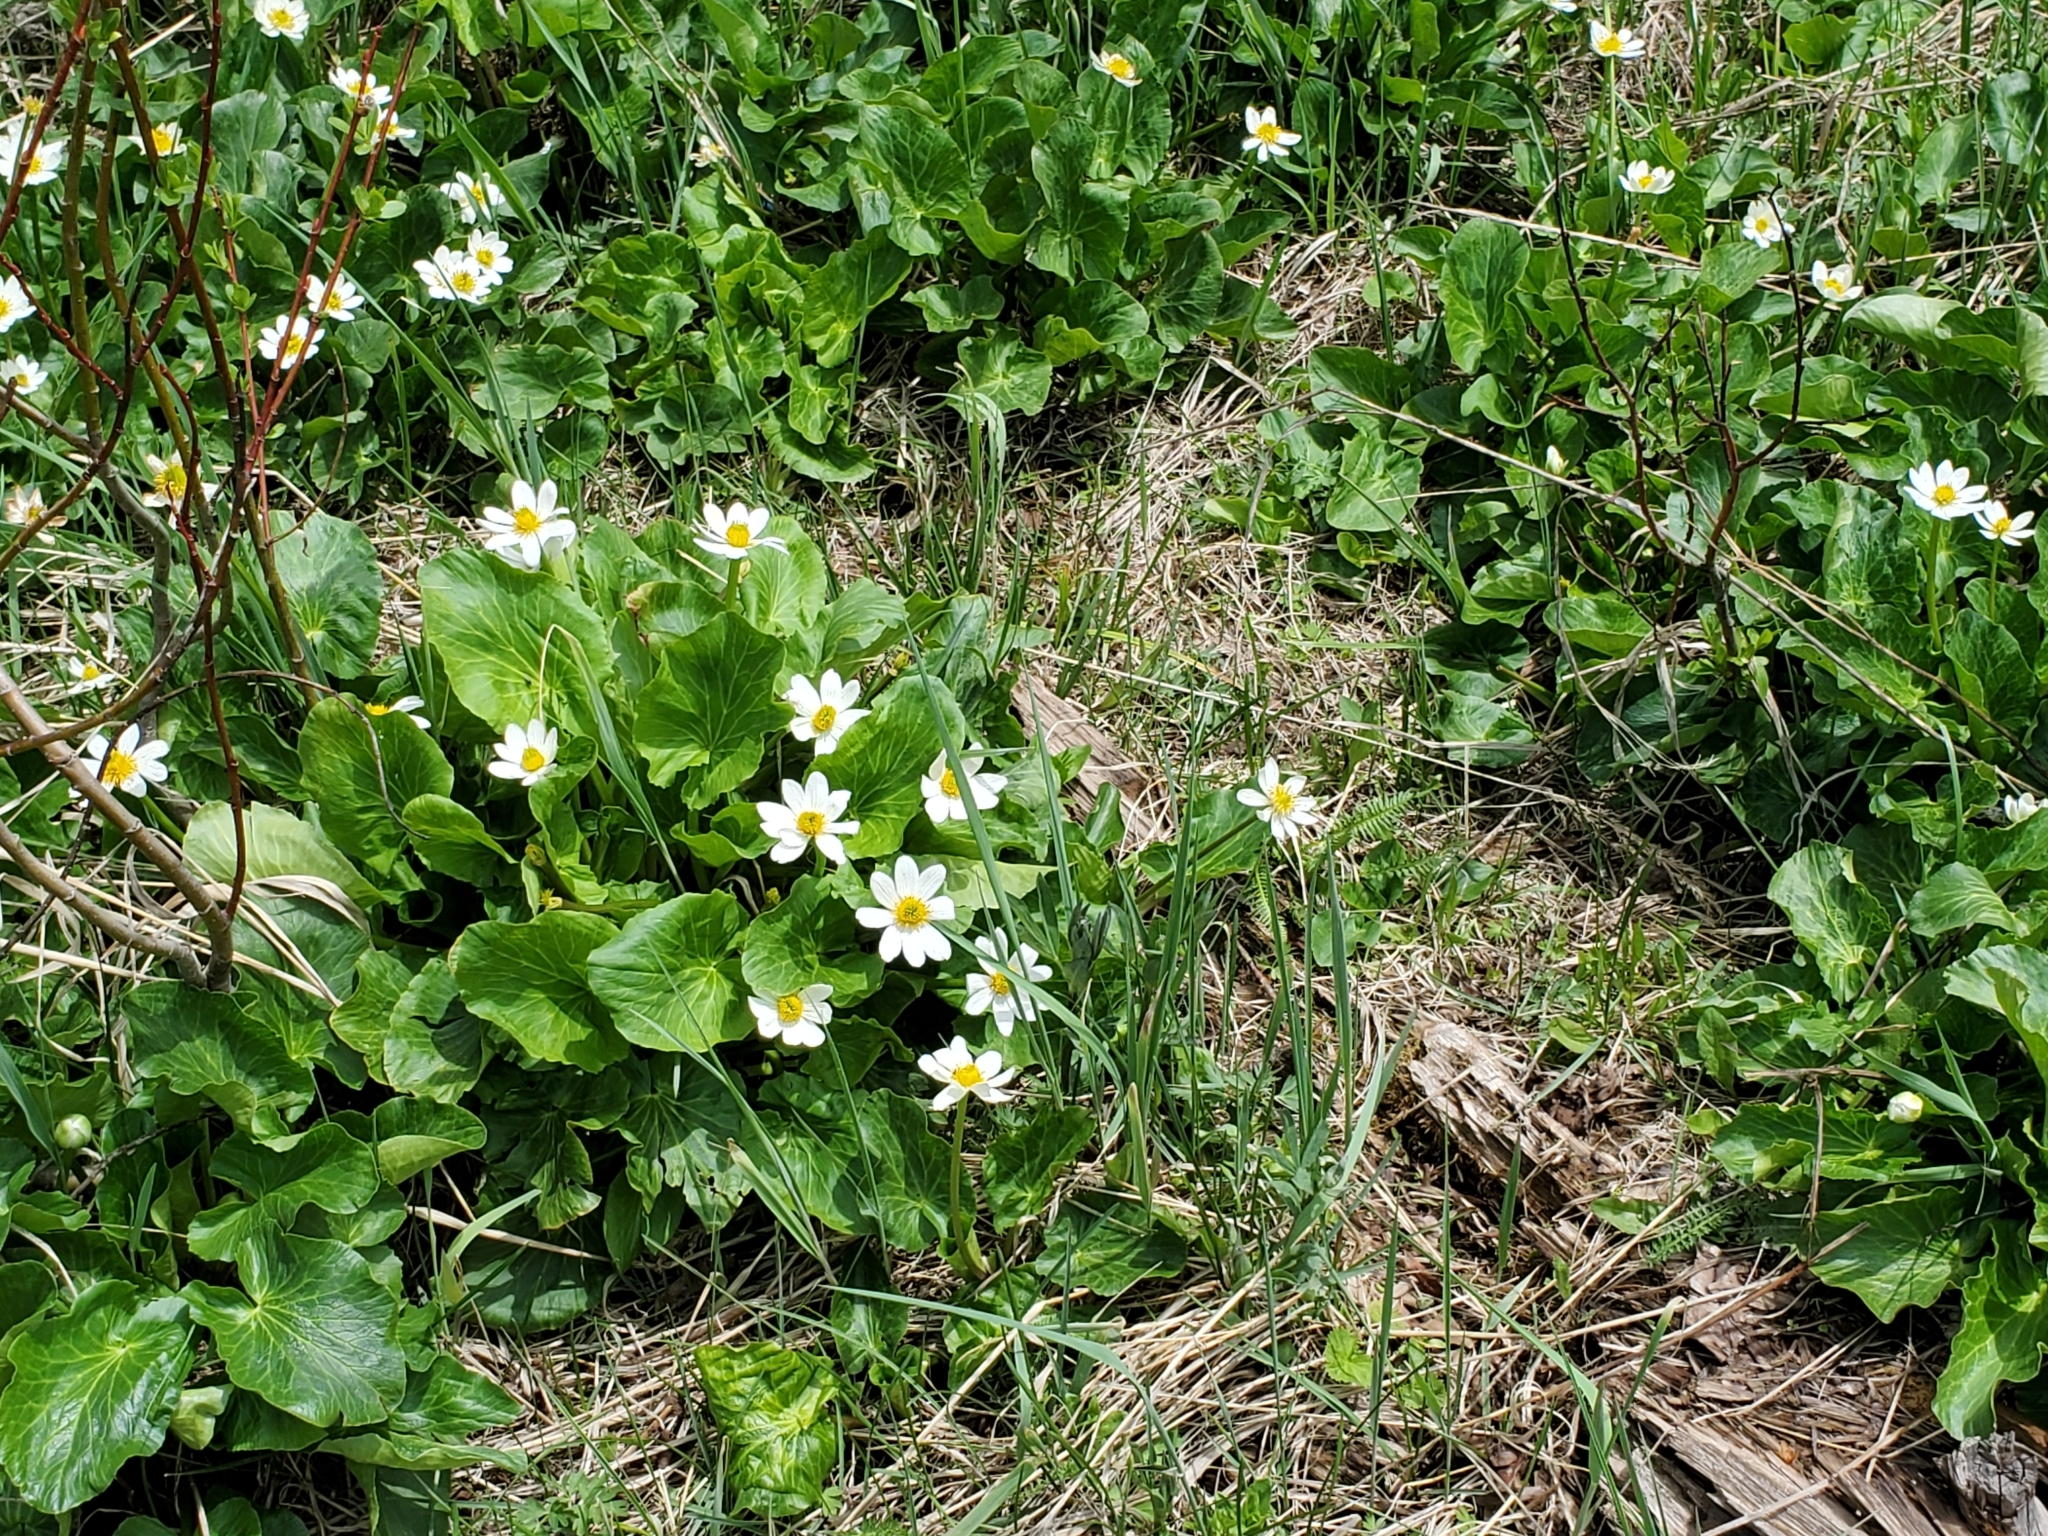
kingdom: Plantae
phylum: Tracheophyta
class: Magnoliopsida
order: Ranunculales
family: Ranunculaceae
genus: Caltha
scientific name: Caltha leptosepala
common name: Elkslip
